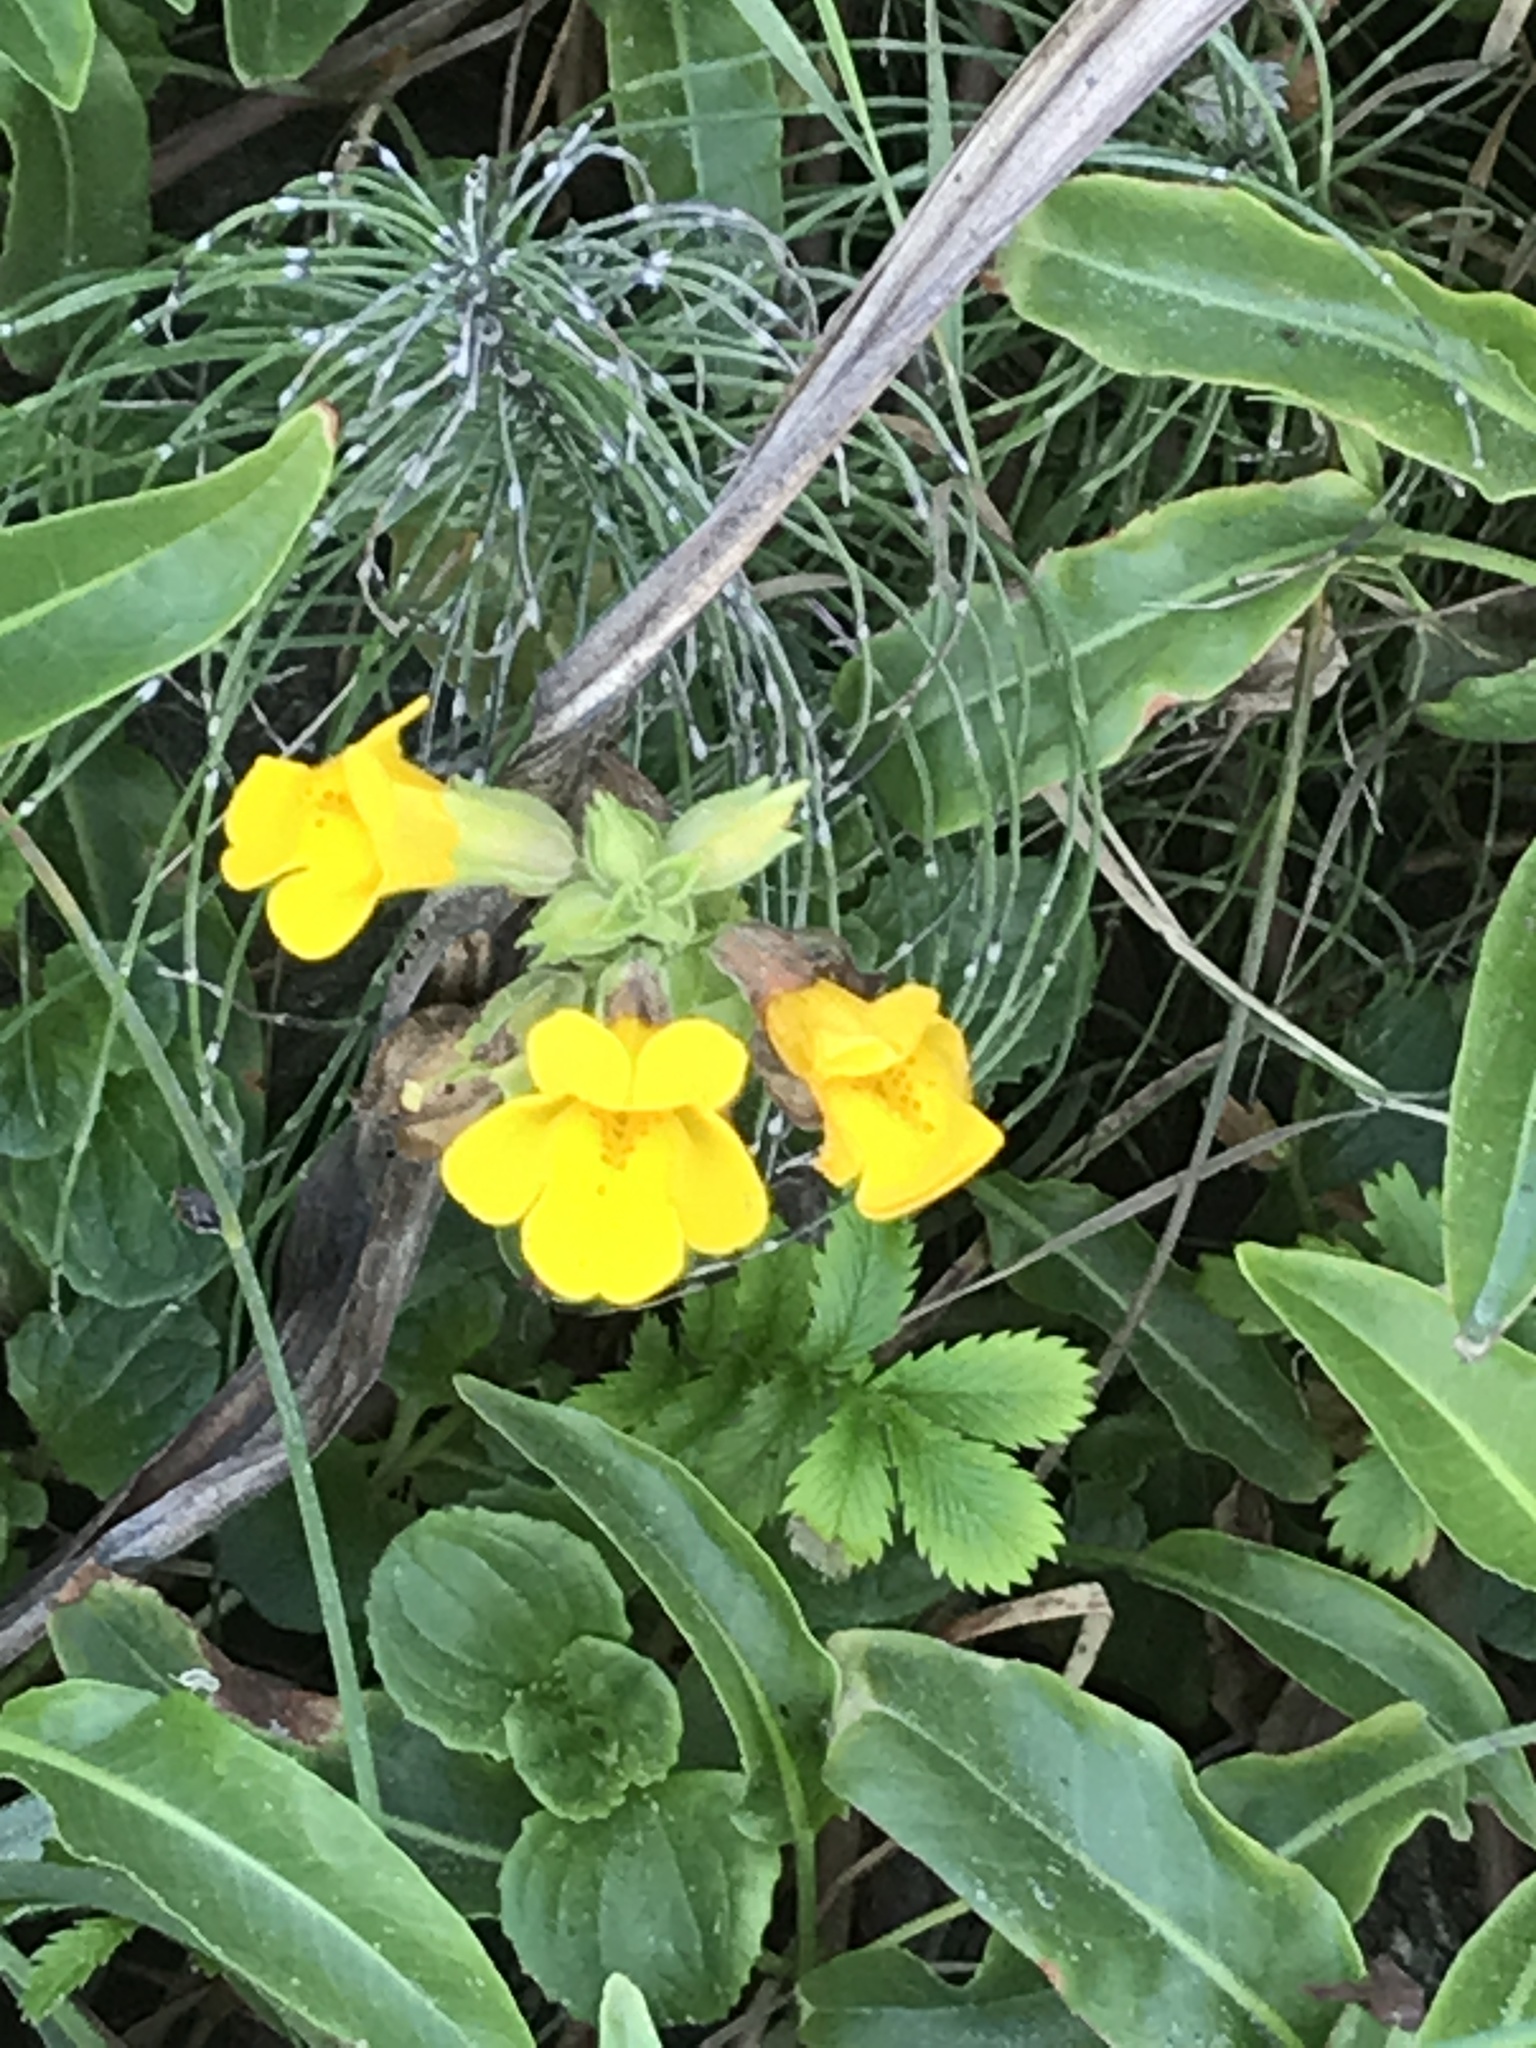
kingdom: Plantae
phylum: Tracheophyta
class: Magnoliopsida
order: Lamiales
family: Phrymaceae
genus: Erythranthe
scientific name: Erythranthe grandis
